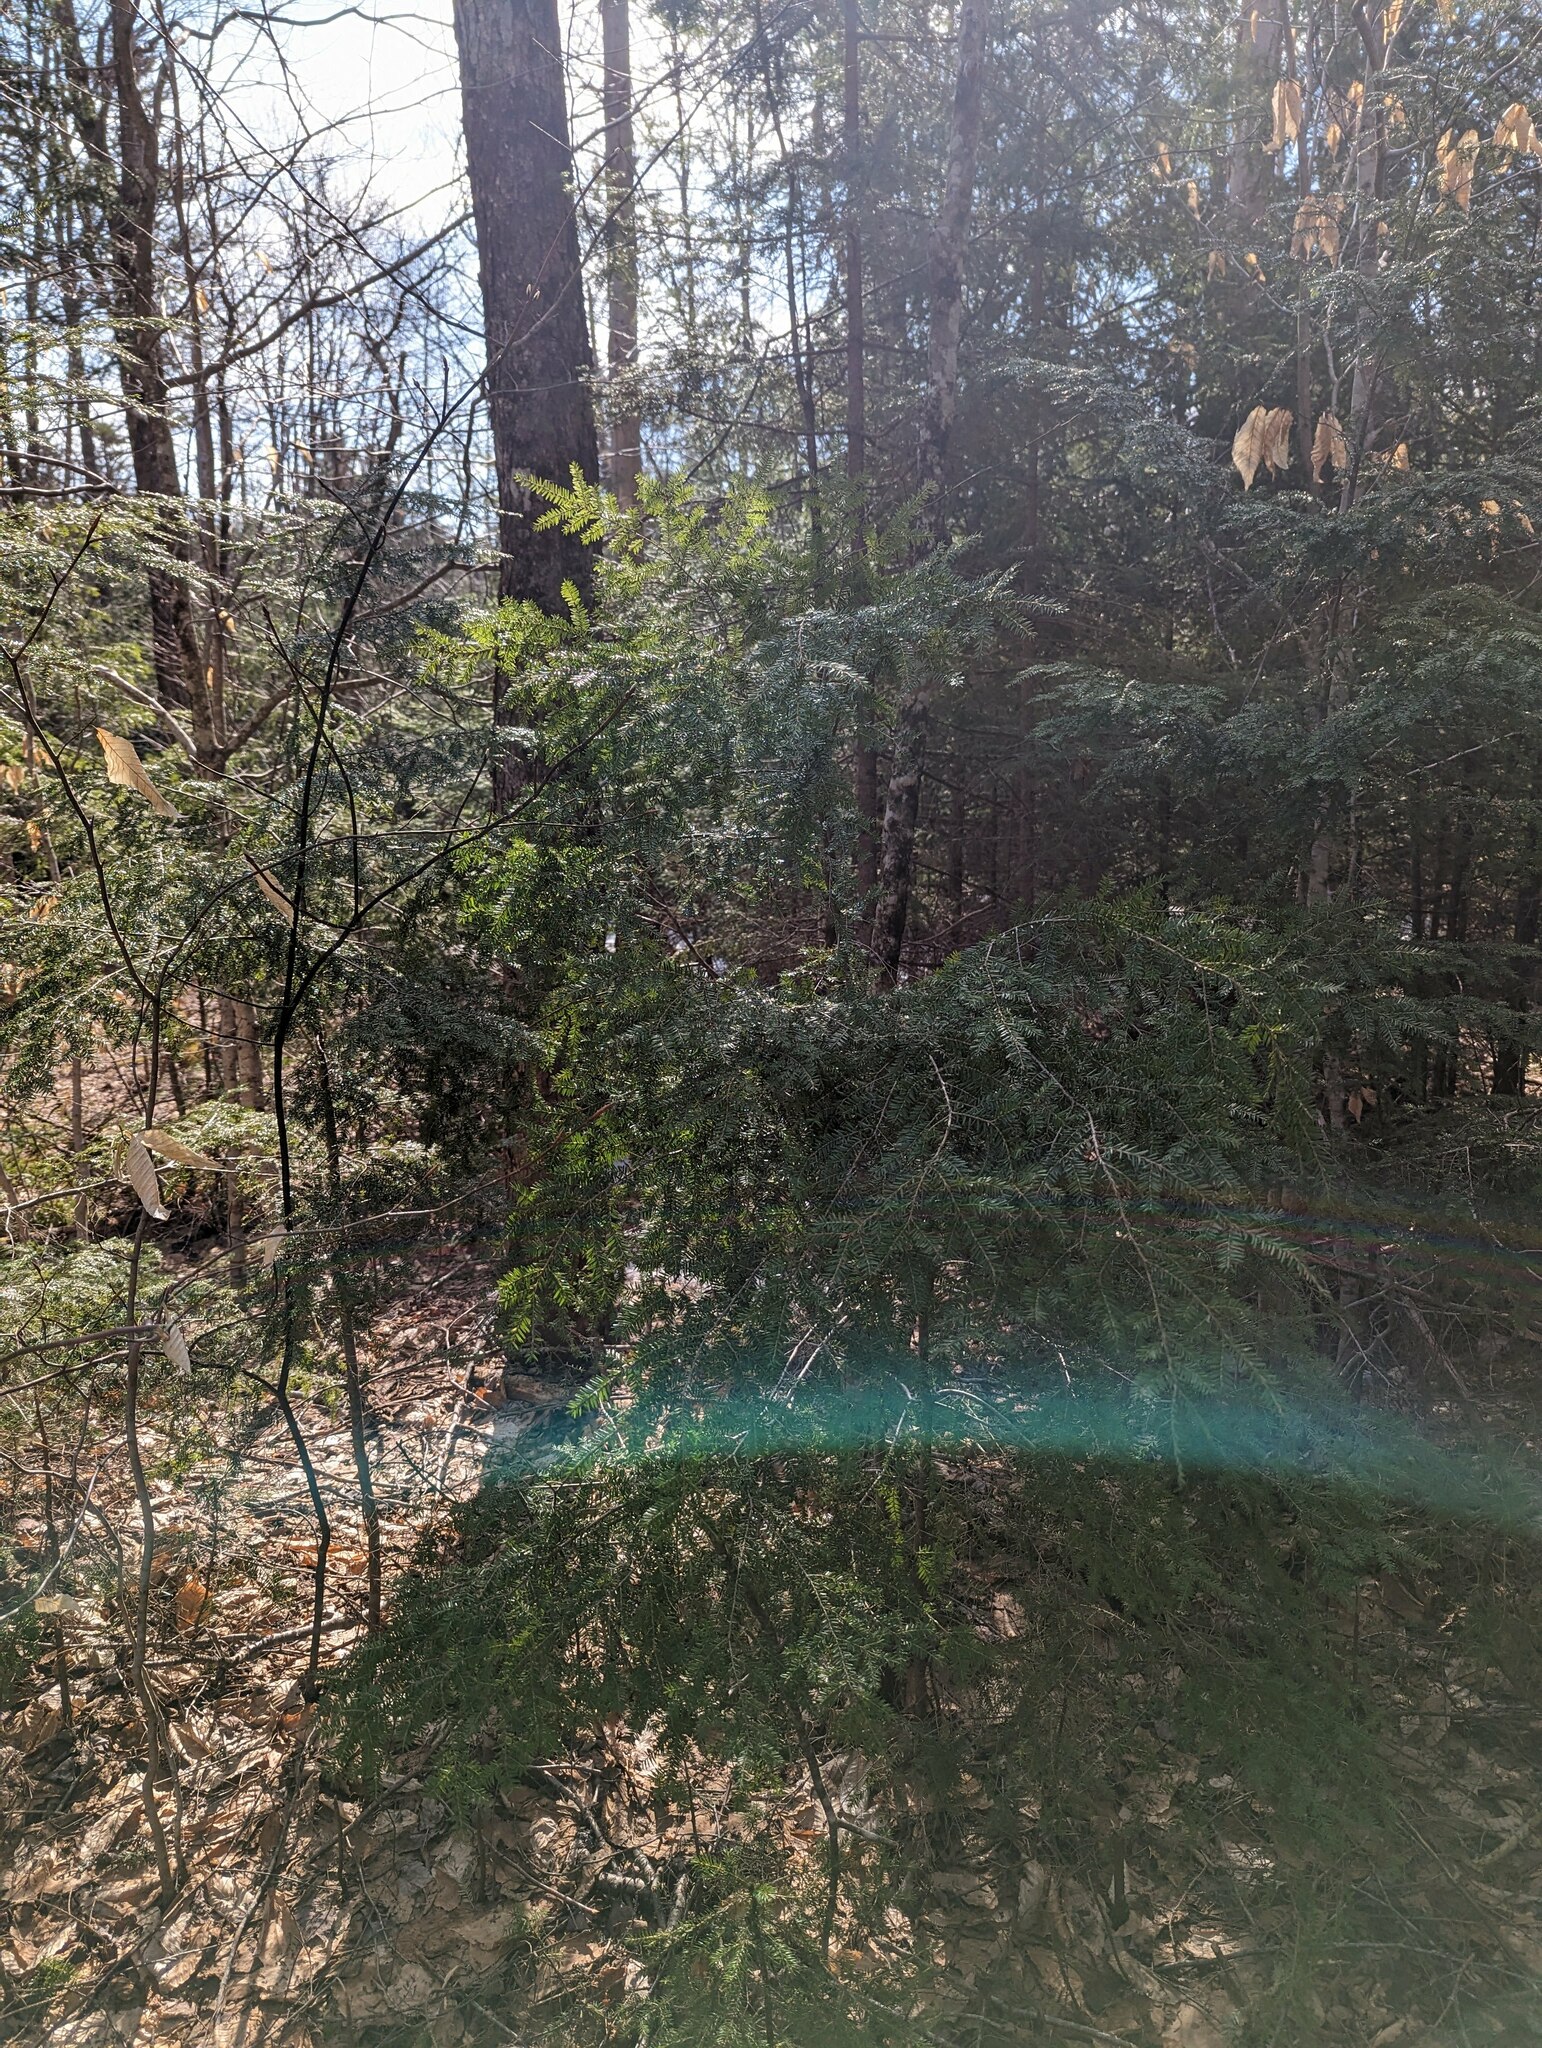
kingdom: Plantae
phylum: Tracheophyta
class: Pinopsida
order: Pinales
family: Pinaceae
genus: Tsuga
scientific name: Tsuga canadensis
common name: Eastern hemlock
